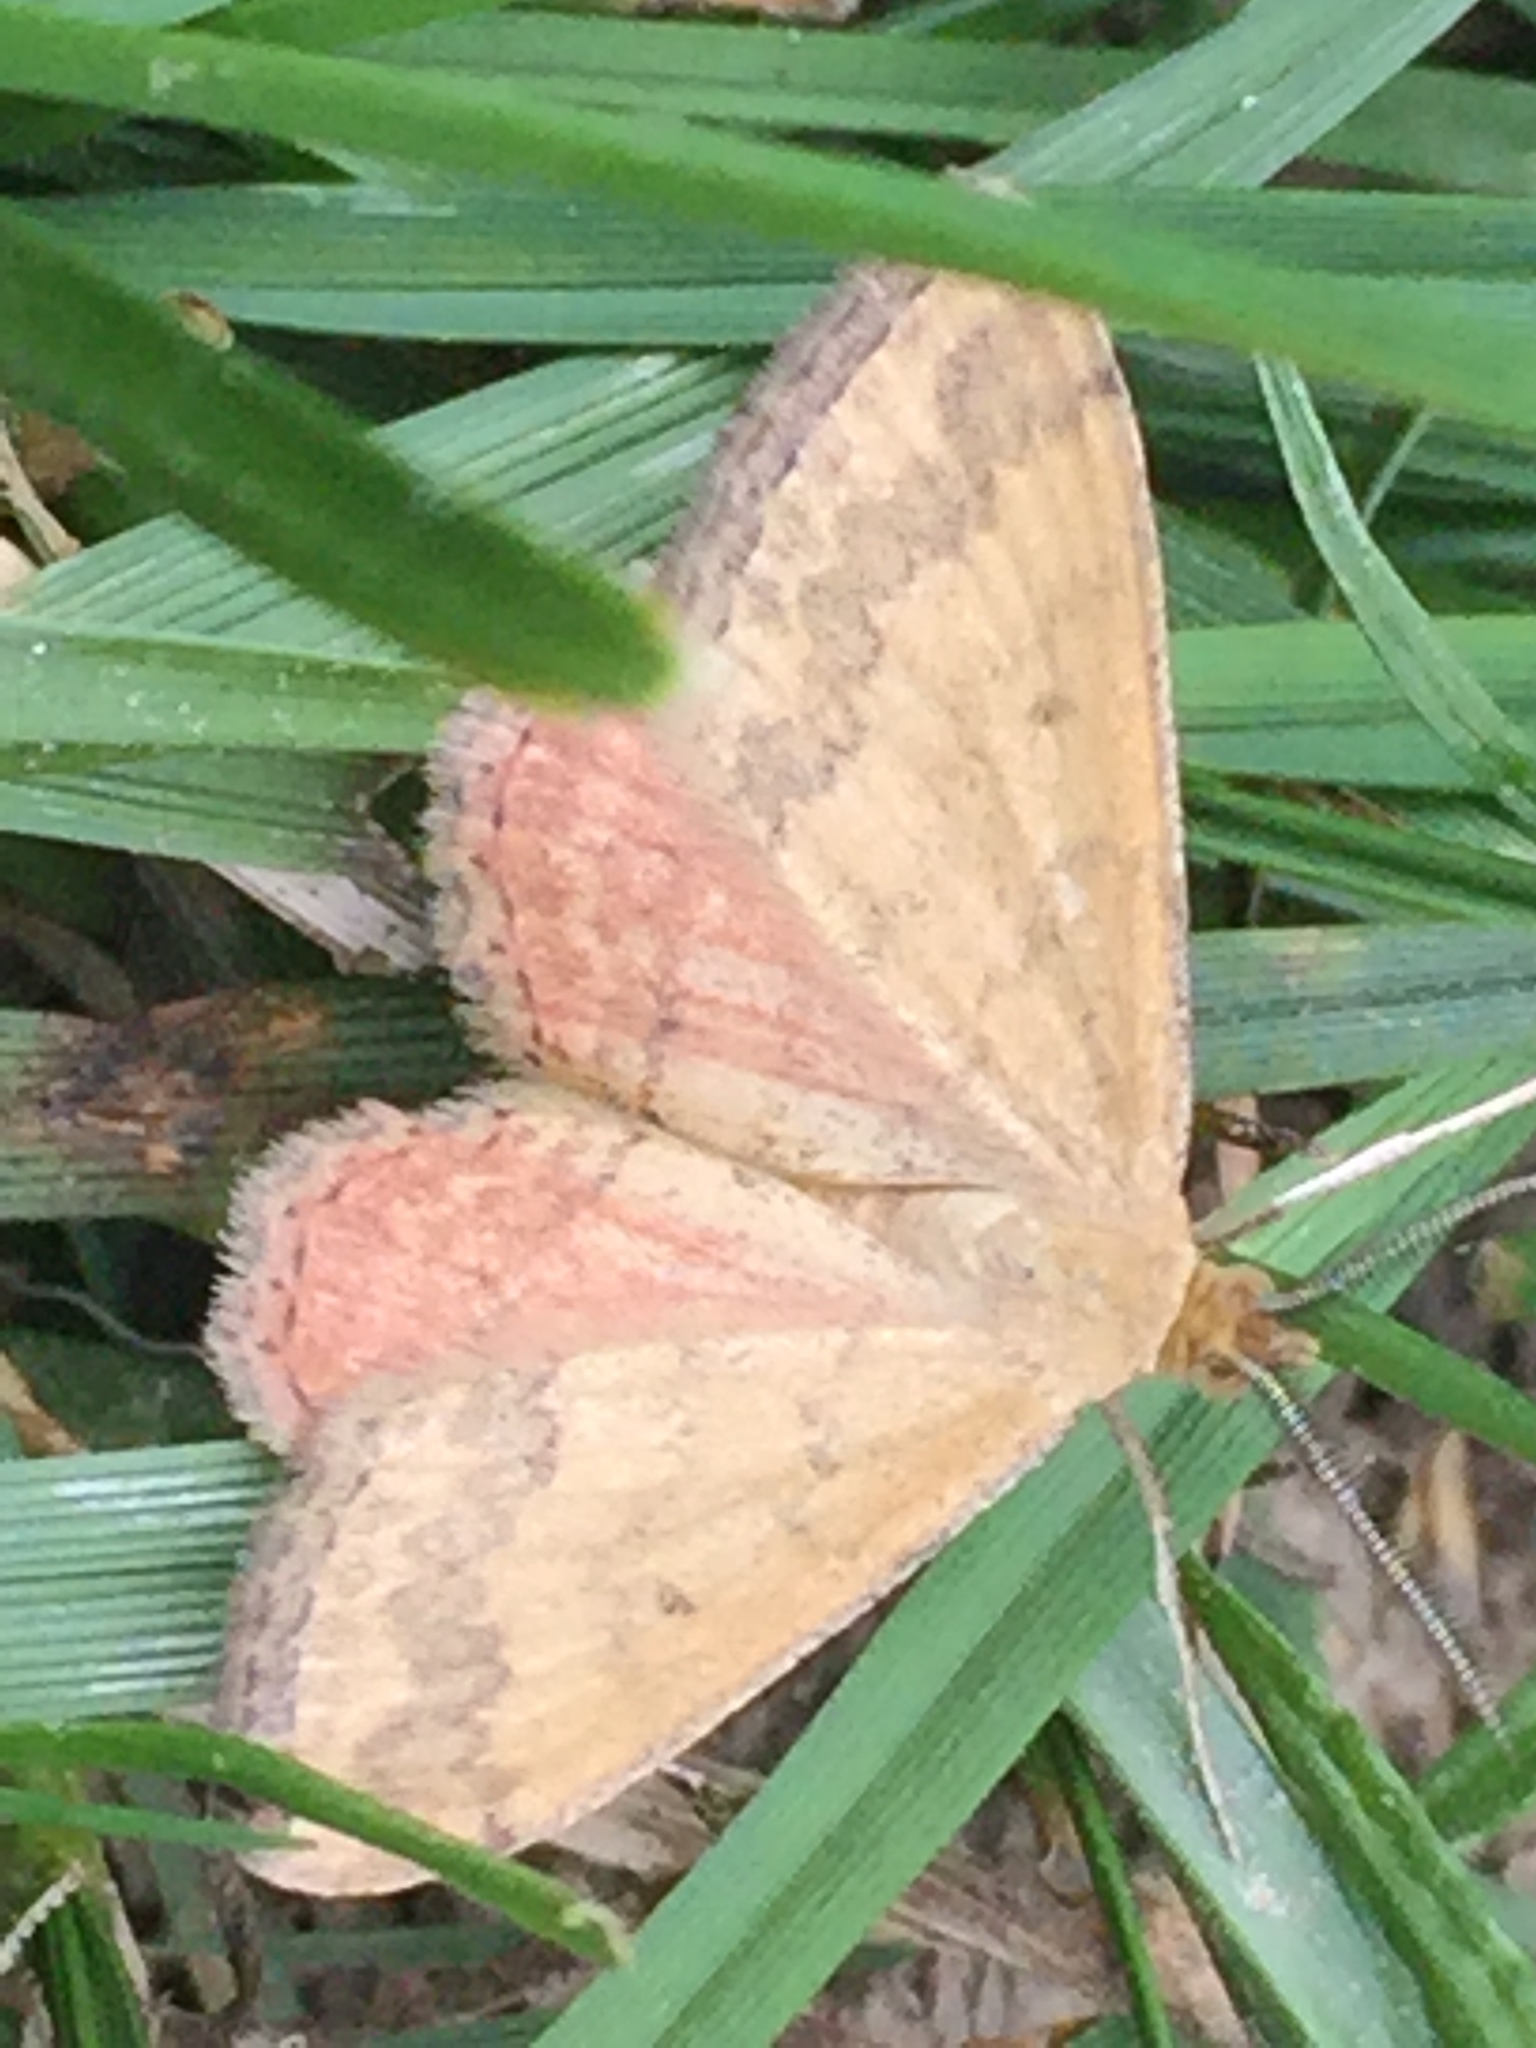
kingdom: Animalia
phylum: Arthropoda
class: Insecta
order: Lepidoptera
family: Geometridae
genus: Scopula
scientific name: Scopula rubraria
